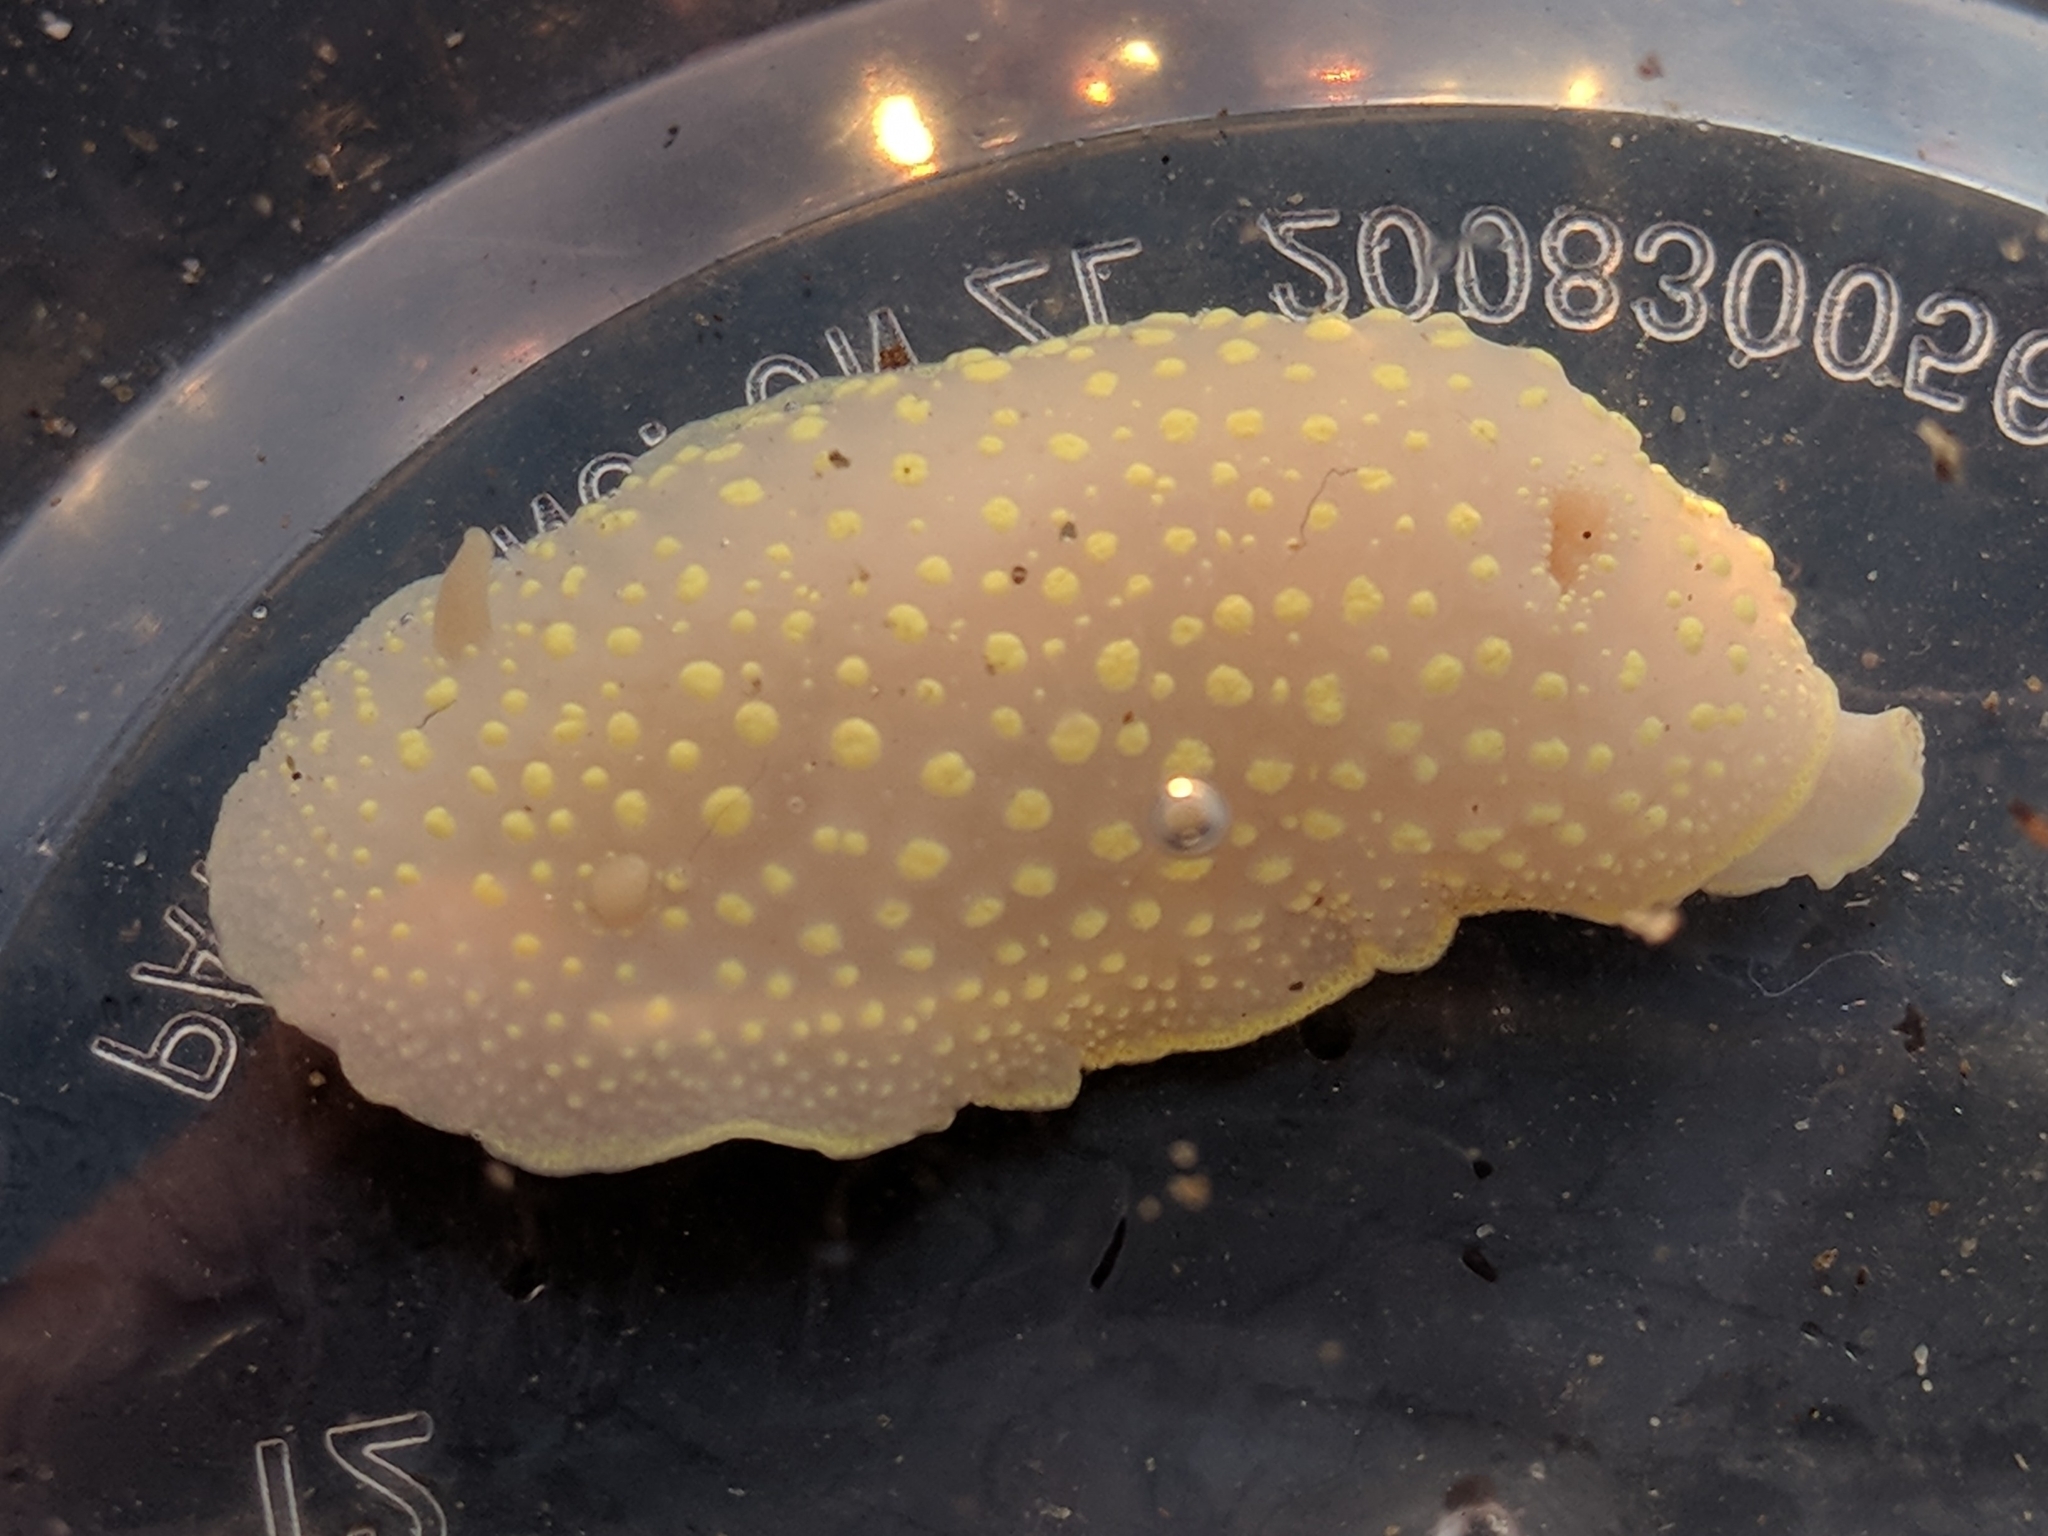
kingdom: Animalia
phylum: Mollusca
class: Gastropoda
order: Nudibranchia
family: Cadlinidae
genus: Cadlina
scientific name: Cadlina luteomarginata
